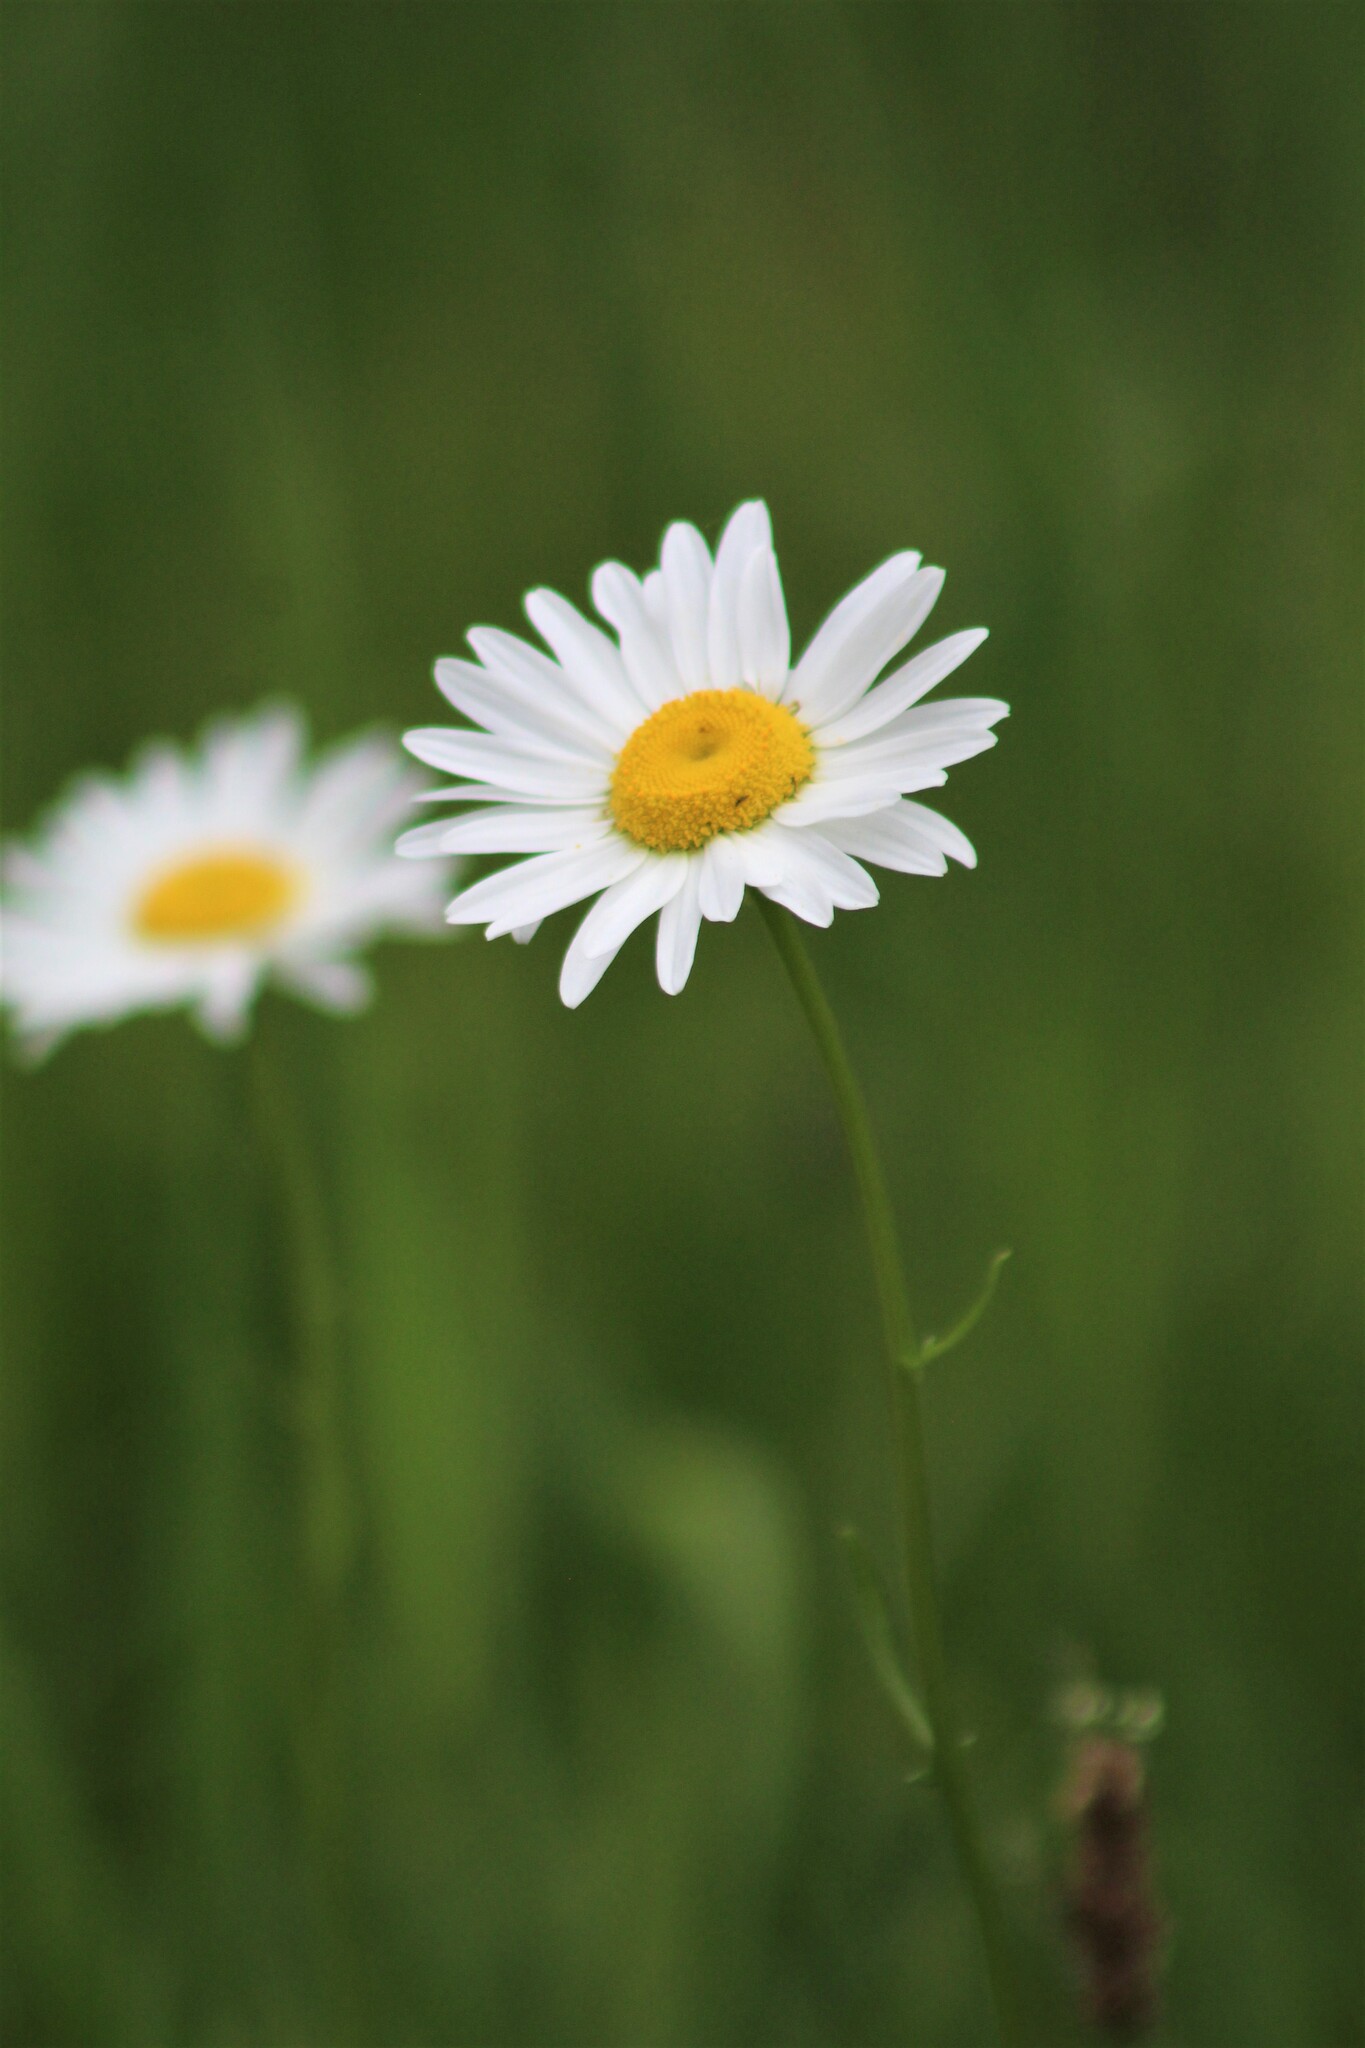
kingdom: Plantae
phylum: Tracheophyta
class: Magnoliopsida
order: Asterales
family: Asteraceae
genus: Leucanthemum
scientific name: Leucanthemum vulgare
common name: Oxeye daisy
